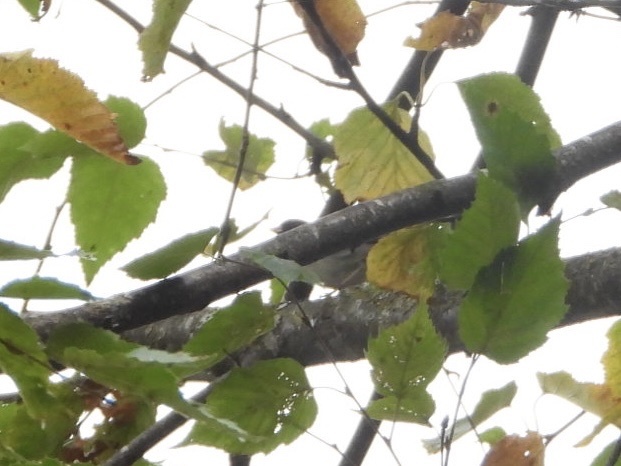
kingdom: Animalia
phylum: Chordata
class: Aves
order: Passeriformes
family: Passerellidae
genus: Junco
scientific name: Junco hyemalis
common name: Dark-eyed junco
